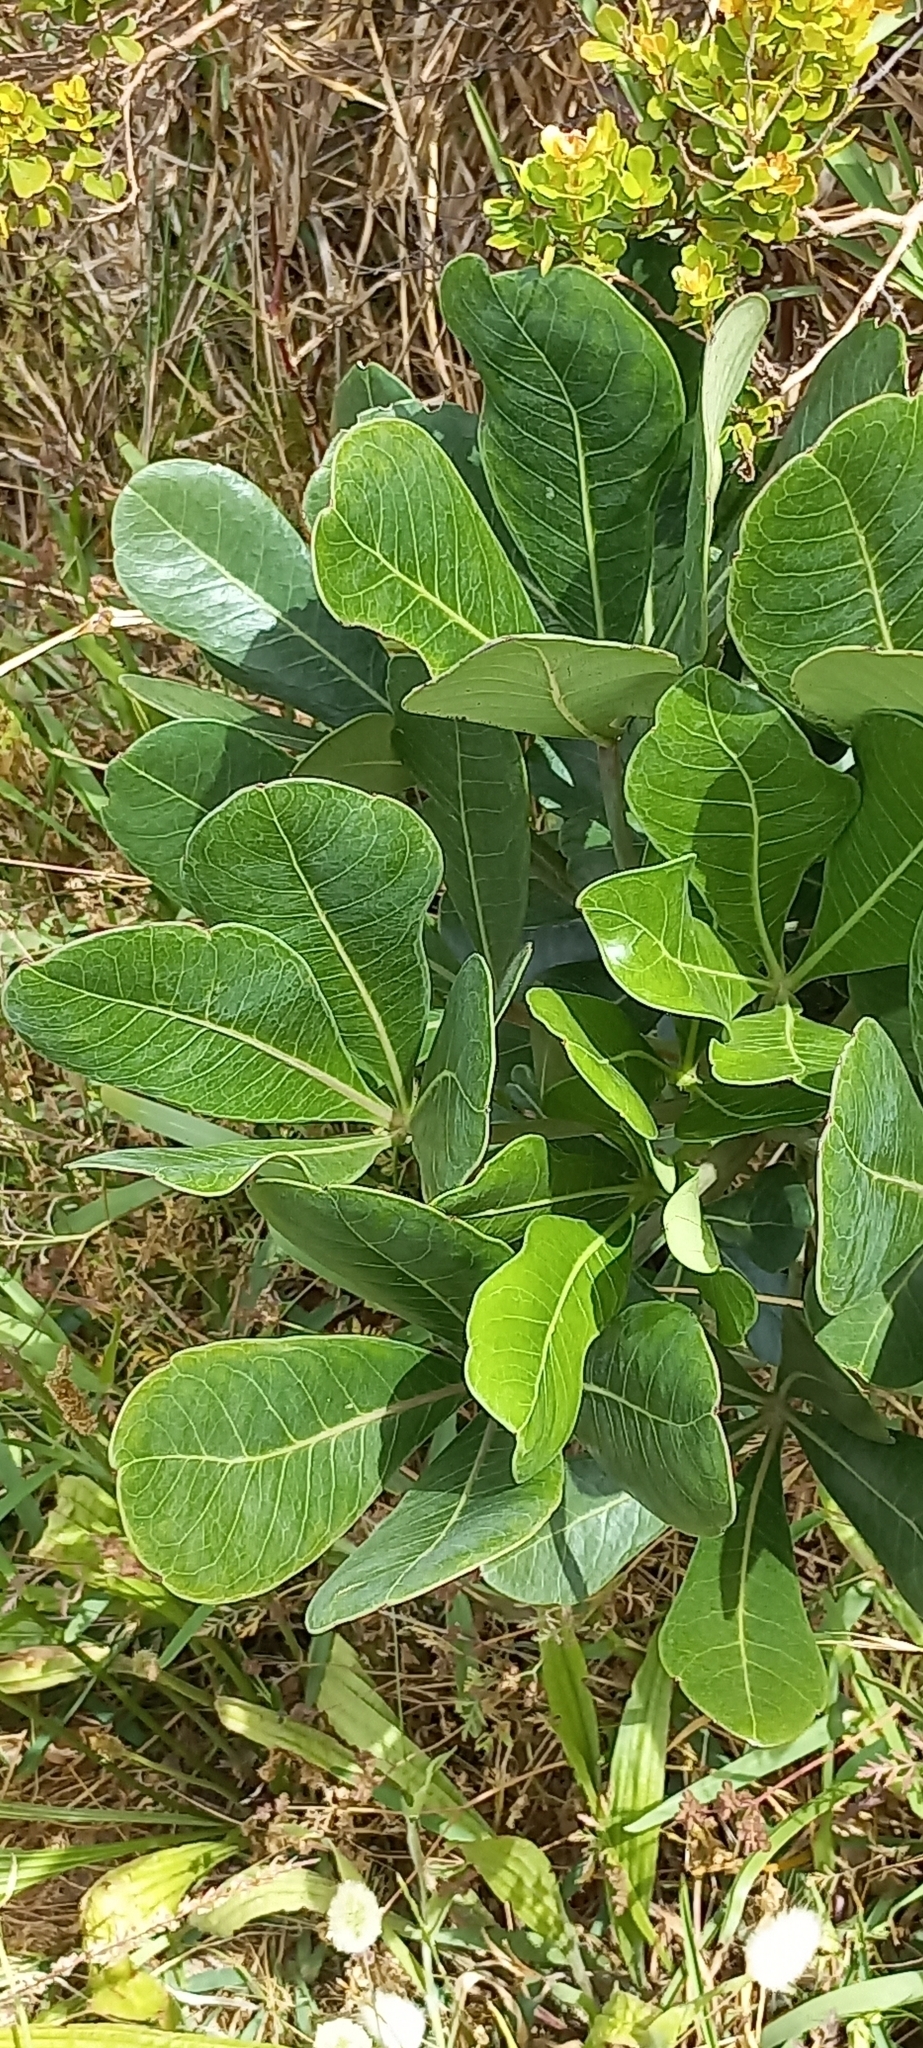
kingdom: Plantae
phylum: Tracheophyta
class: Magnoliopsida
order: Apiales
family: Araliaceae
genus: Cussonia
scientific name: Cussonia thyrsiflora
